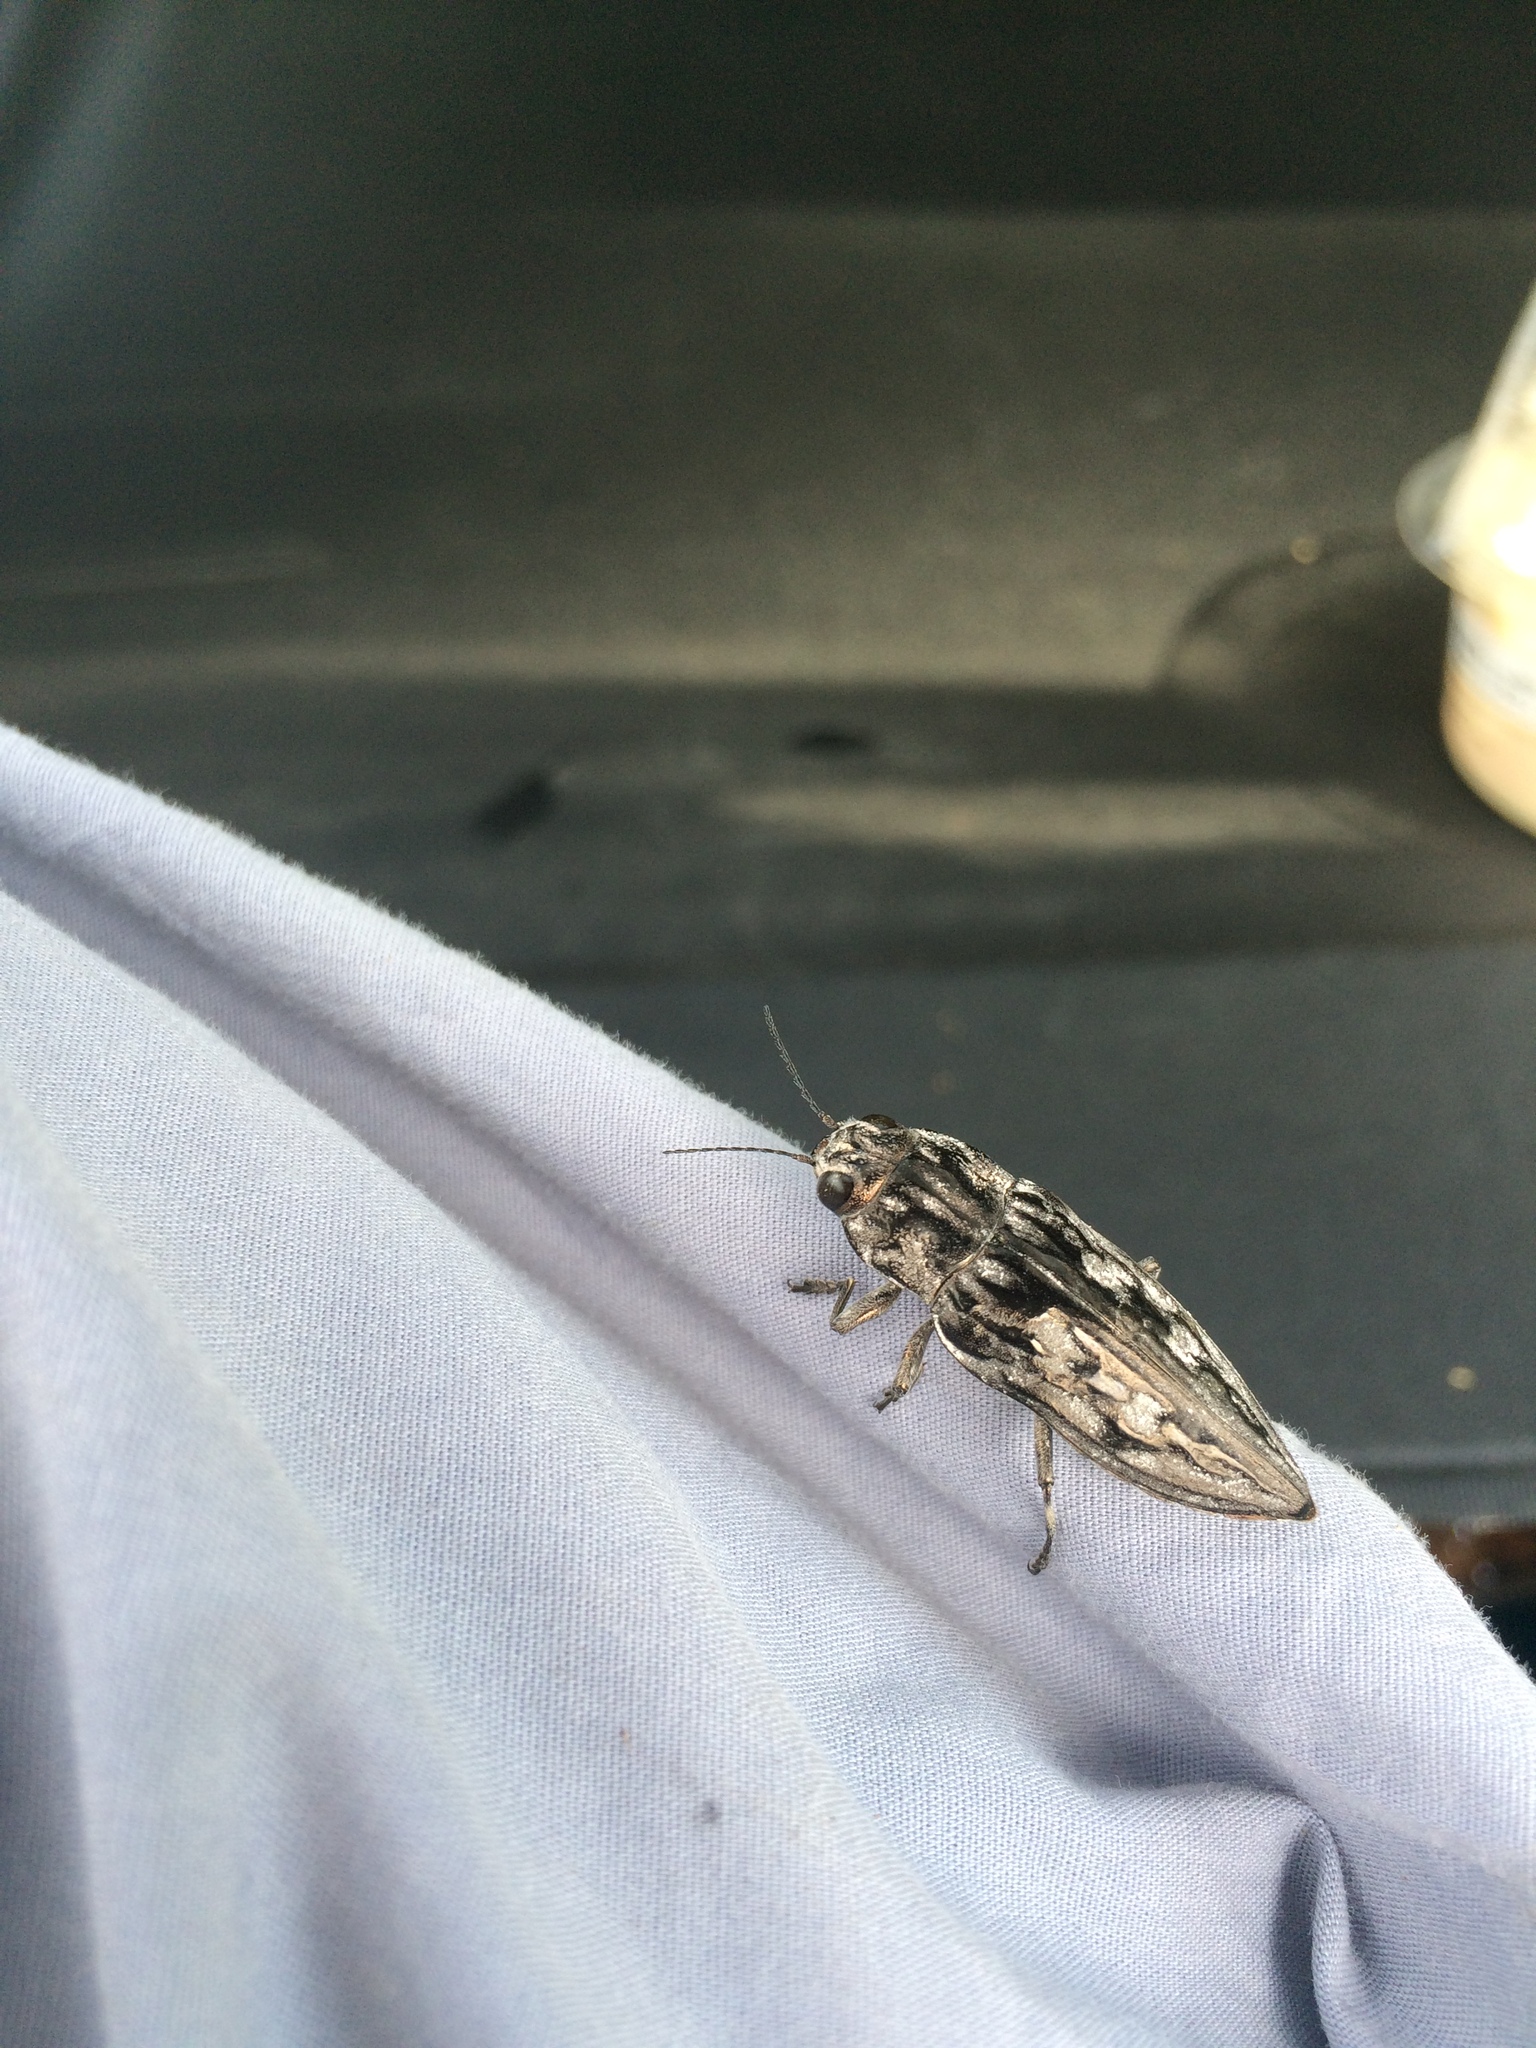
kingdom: Animalia
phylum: Arthropoda
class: Insecta
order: Coleoptera
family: Buprestidae
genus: Chalcophora
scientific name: Chalcophora virginiensis
